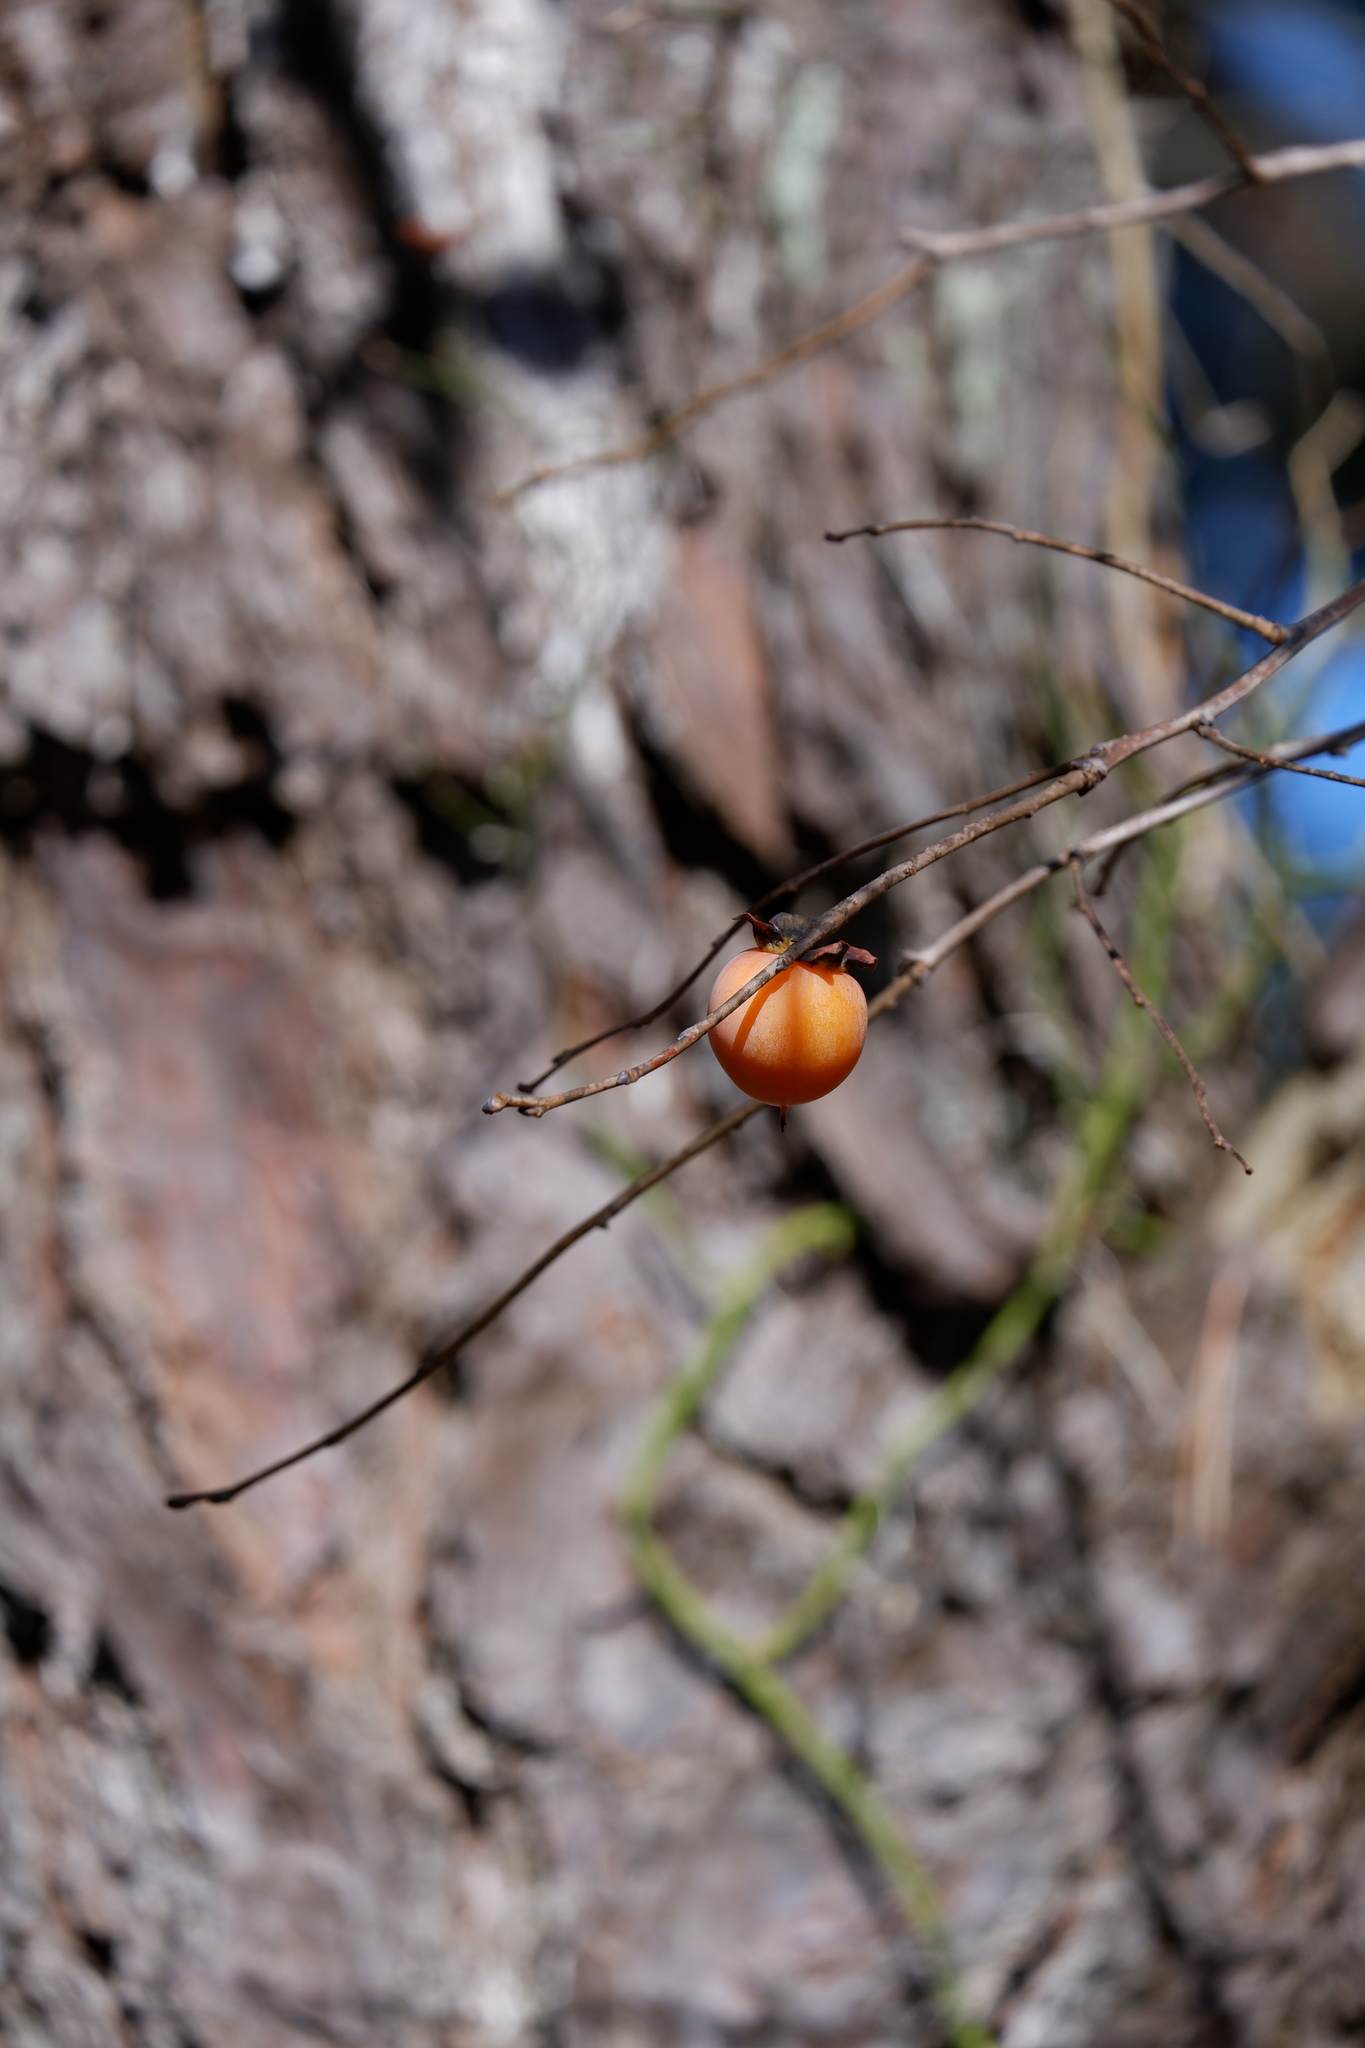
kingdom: Plantae
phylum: Tracheophyta
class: Magnoliopsida
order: Ericales
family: Ebenaceae
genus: Diospyros
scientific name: Diospyros virginiana
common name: Persimmon
